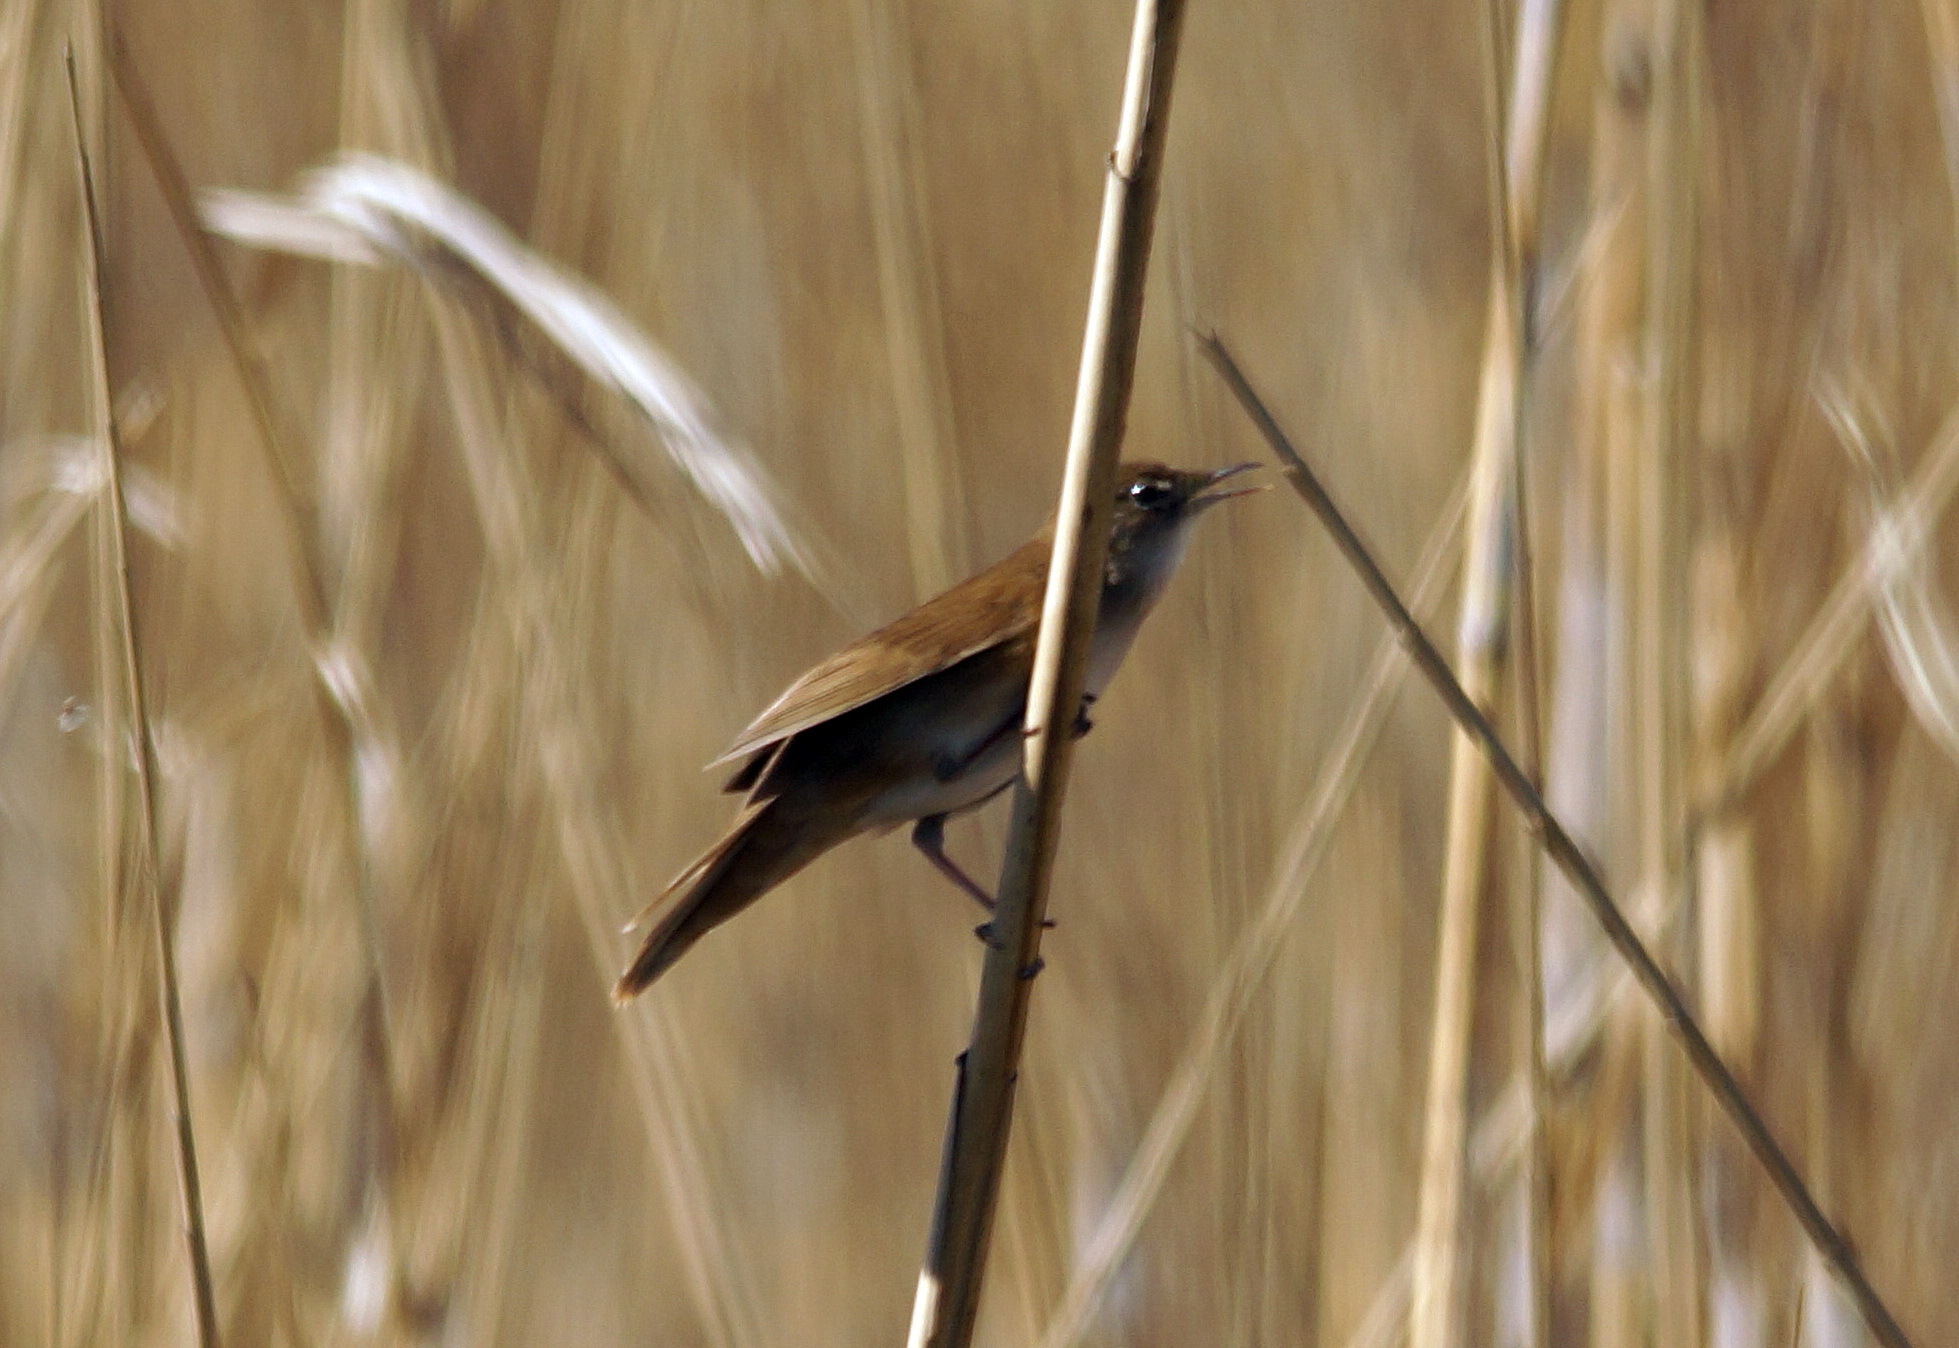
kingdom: Animalia
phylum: Chordata
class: Aves
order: Passeriformes
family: Locustellidae
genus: Locustella
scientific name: Locustella luscinioides
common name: Savi's warbler
